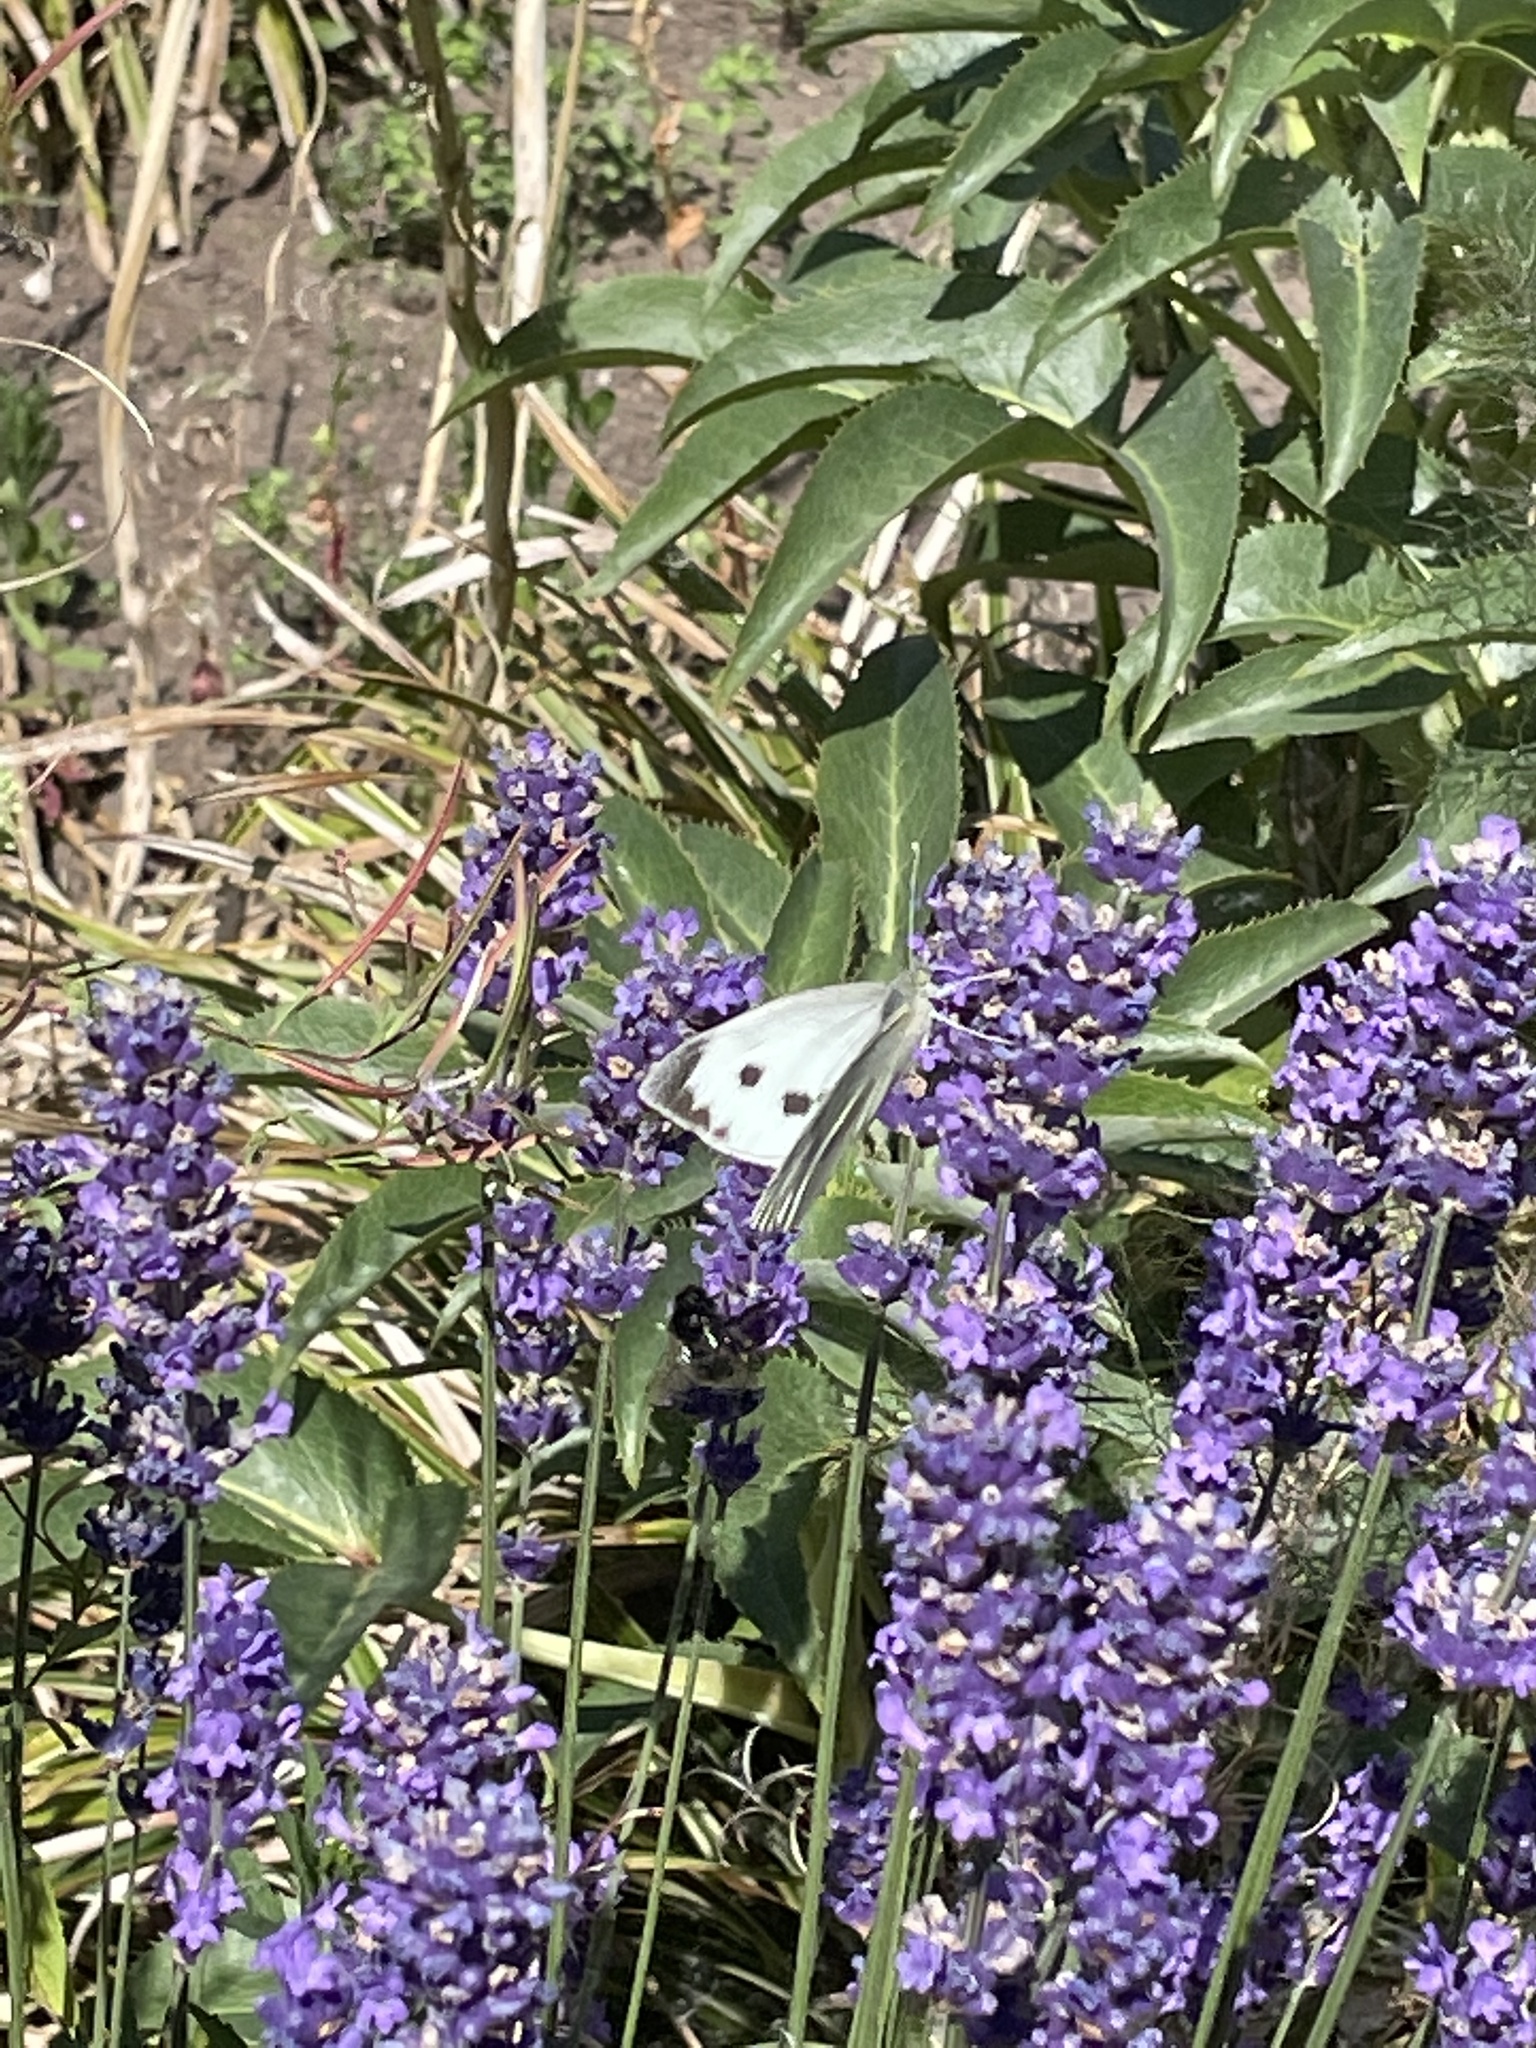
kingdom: Animalia
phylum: Arthropoda
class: Insecta
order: Lepidoptera
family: Pieridae
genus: Pieris
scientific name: Pieris brassicae
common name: Large white
